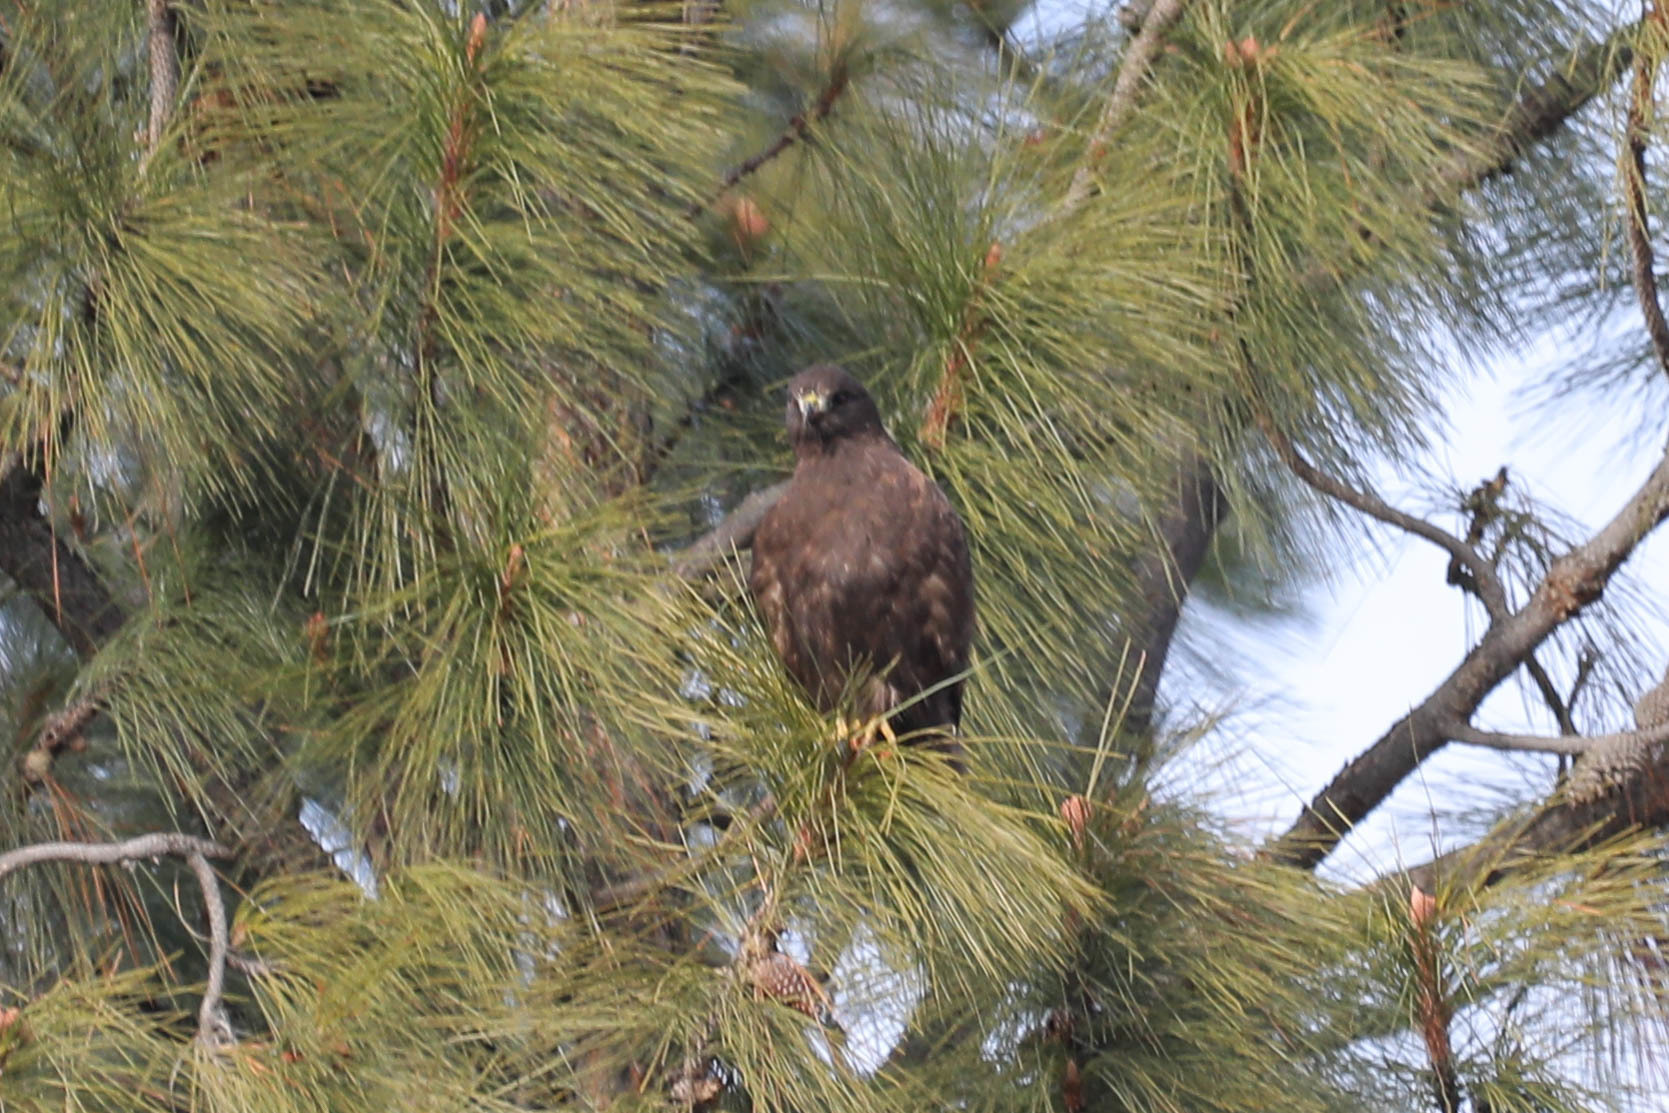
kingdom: Animalia
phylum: Chordata
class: Aves
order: Accipitriformes
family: Accipitridae
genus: Buteo
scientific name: Buteo jamaicensis
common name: Red-tailed hawk
